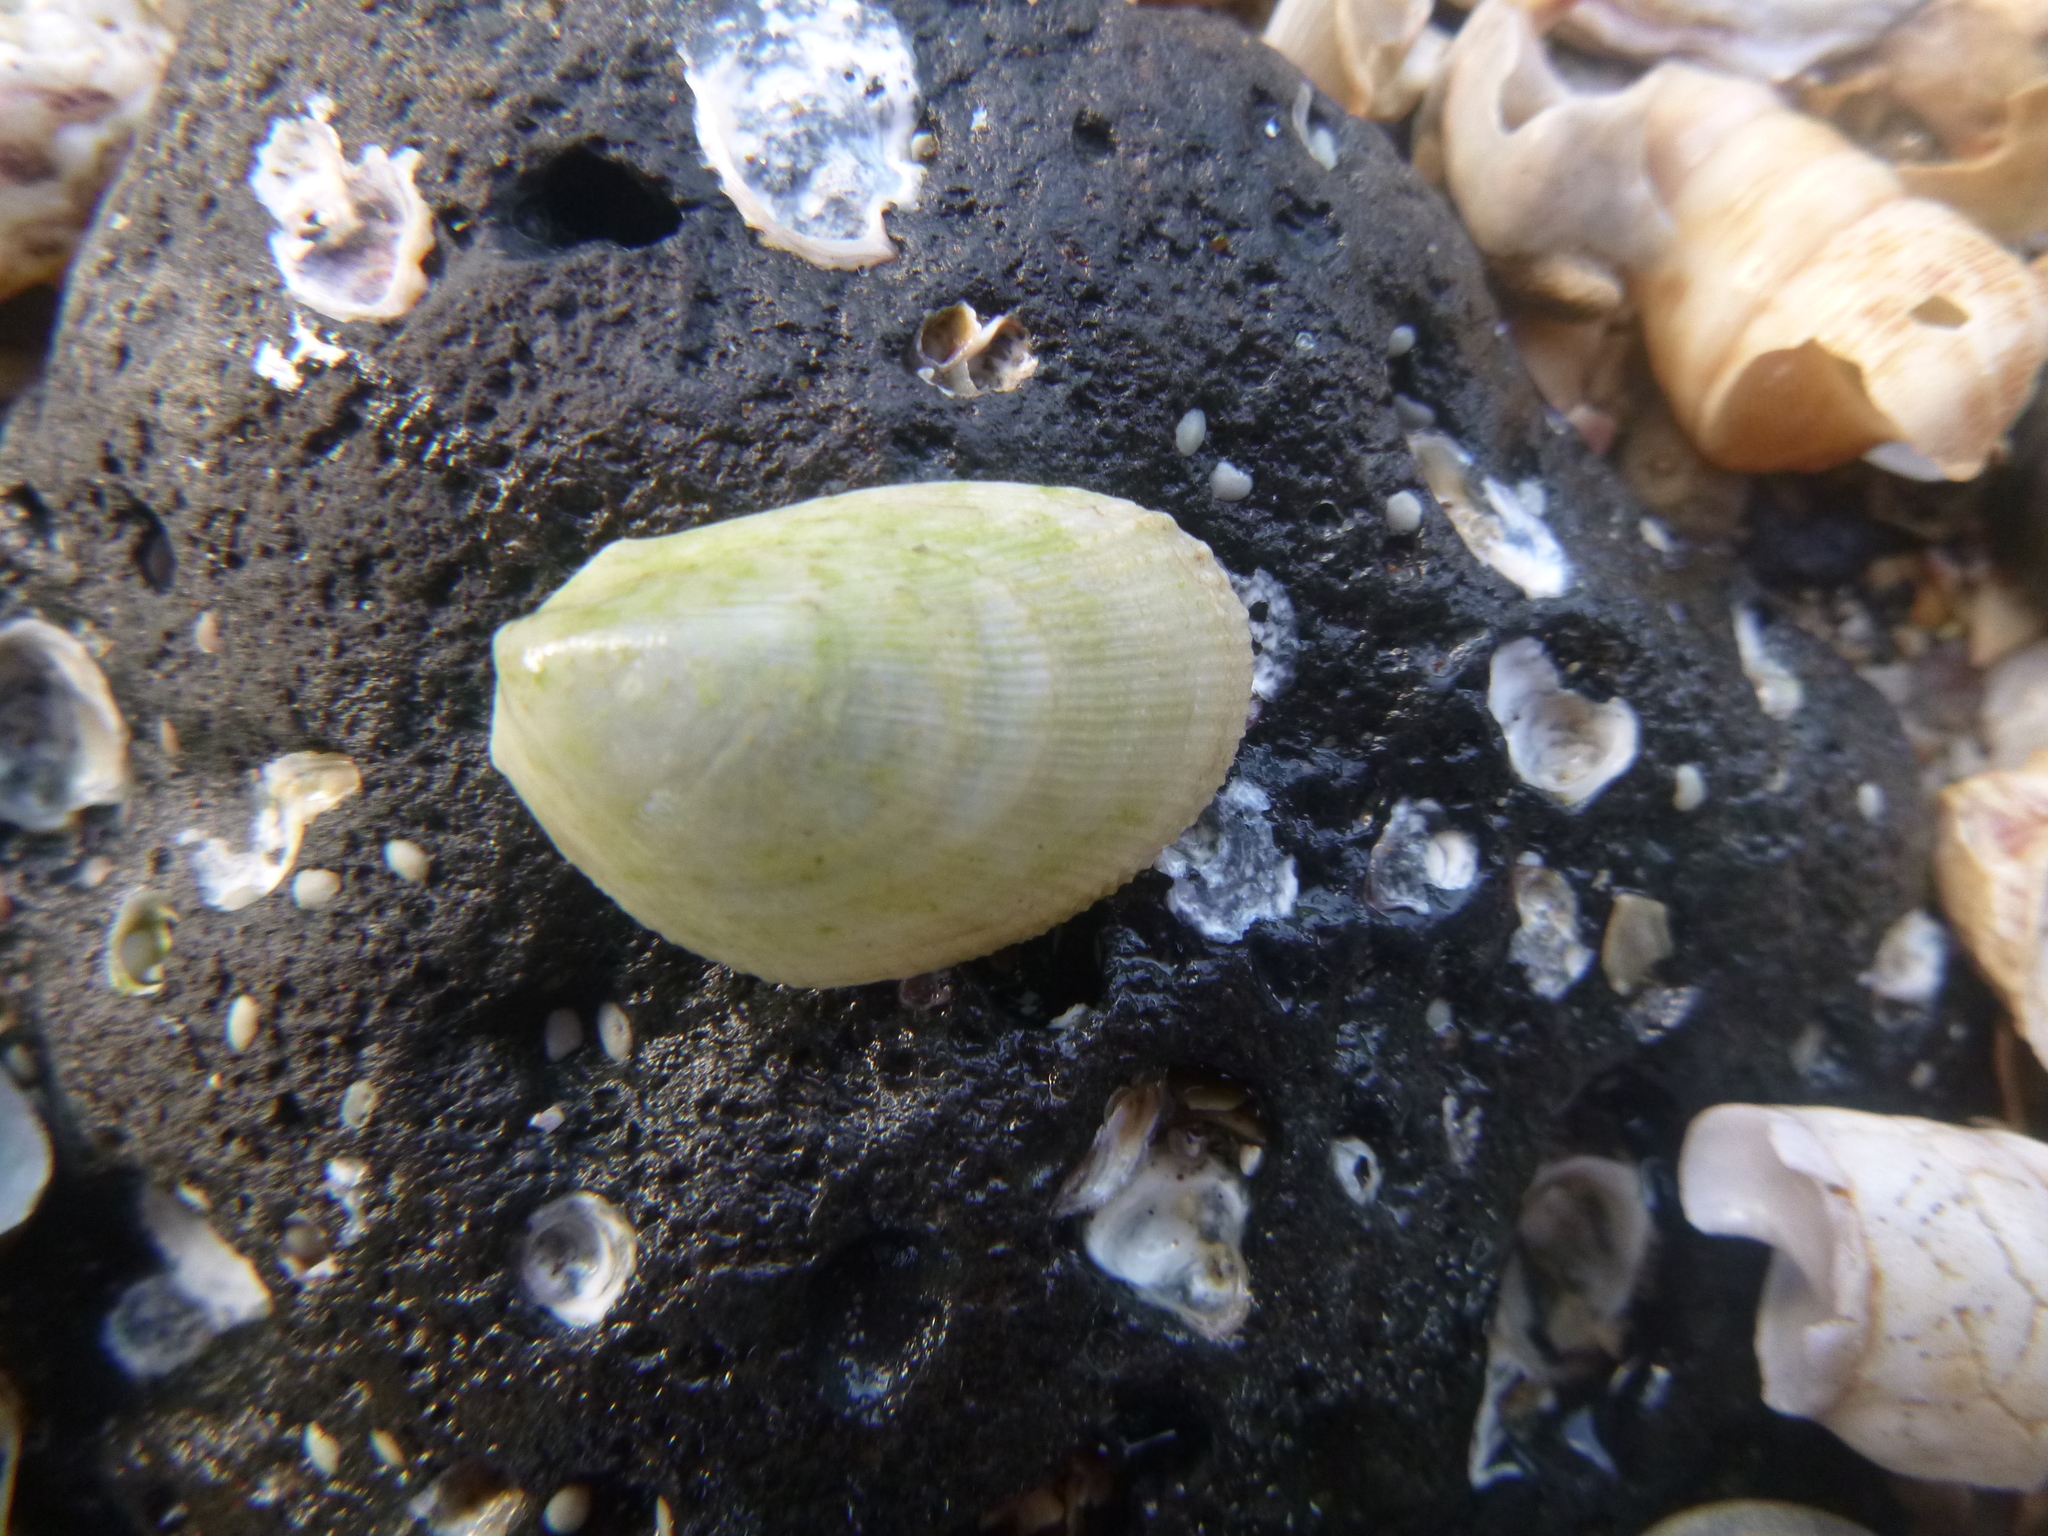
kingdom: Animalia
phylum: Mollusca
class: Bivalvia
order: Limida
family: Limidae
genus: Limaria
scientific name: Limaria orientalis
